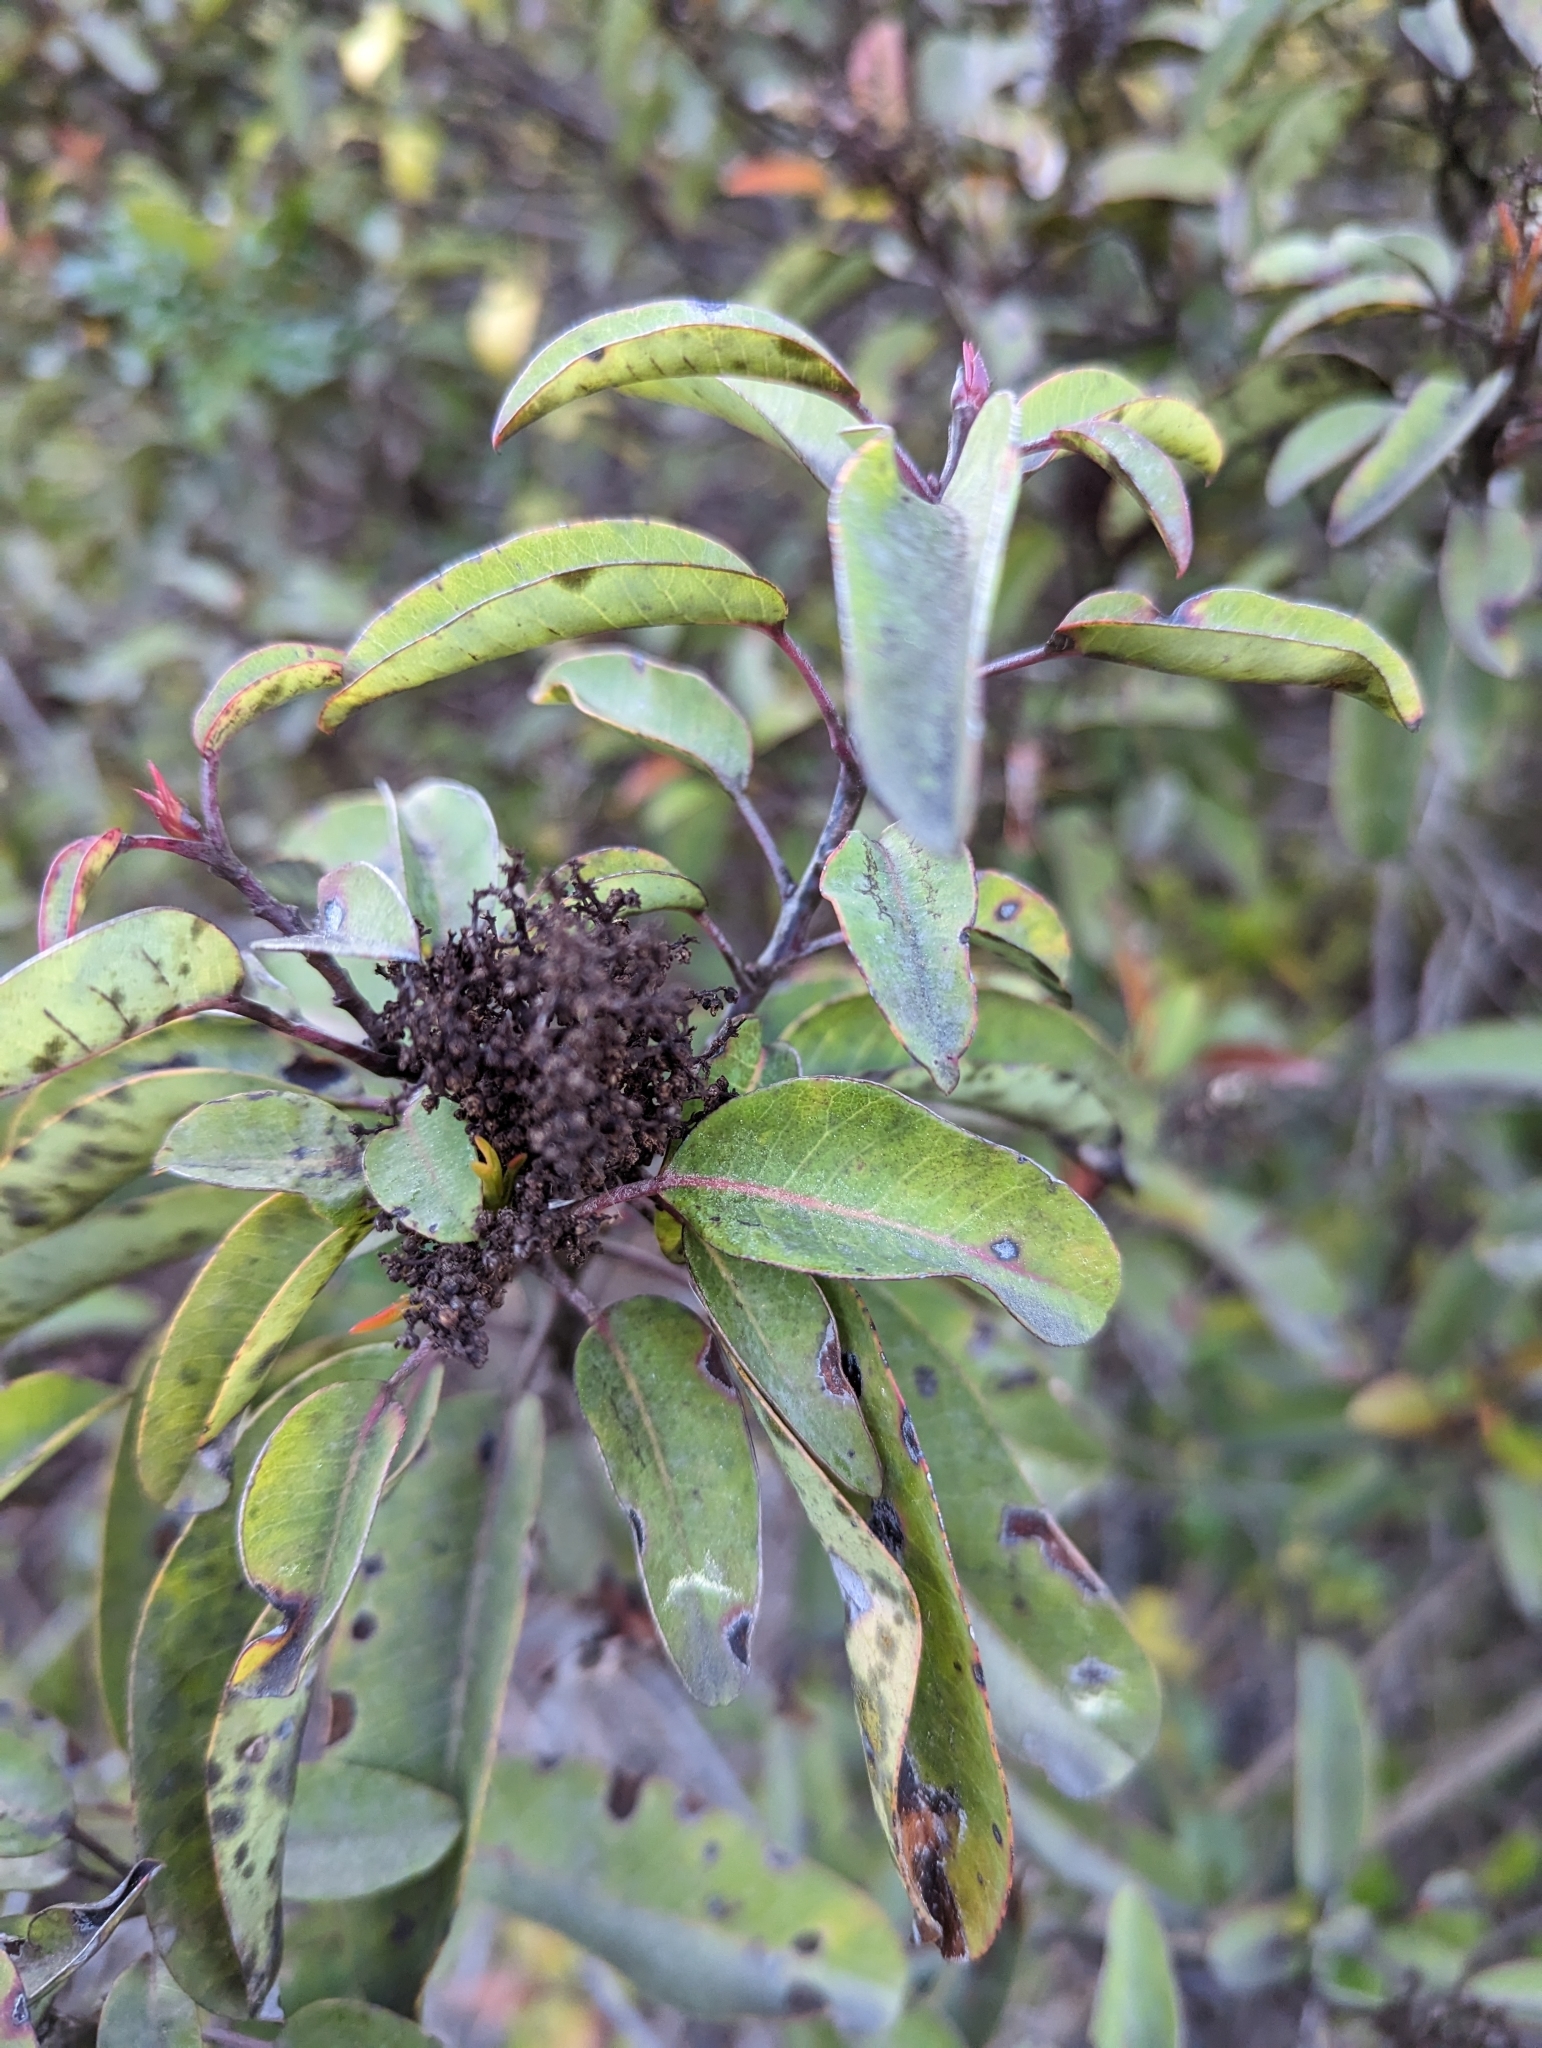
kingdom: Plantae
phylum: Tracheophyta
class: Magnoliopsida
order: Sapindales
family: Anacardiaceae
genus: Malosma
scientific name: Malosma laurina
